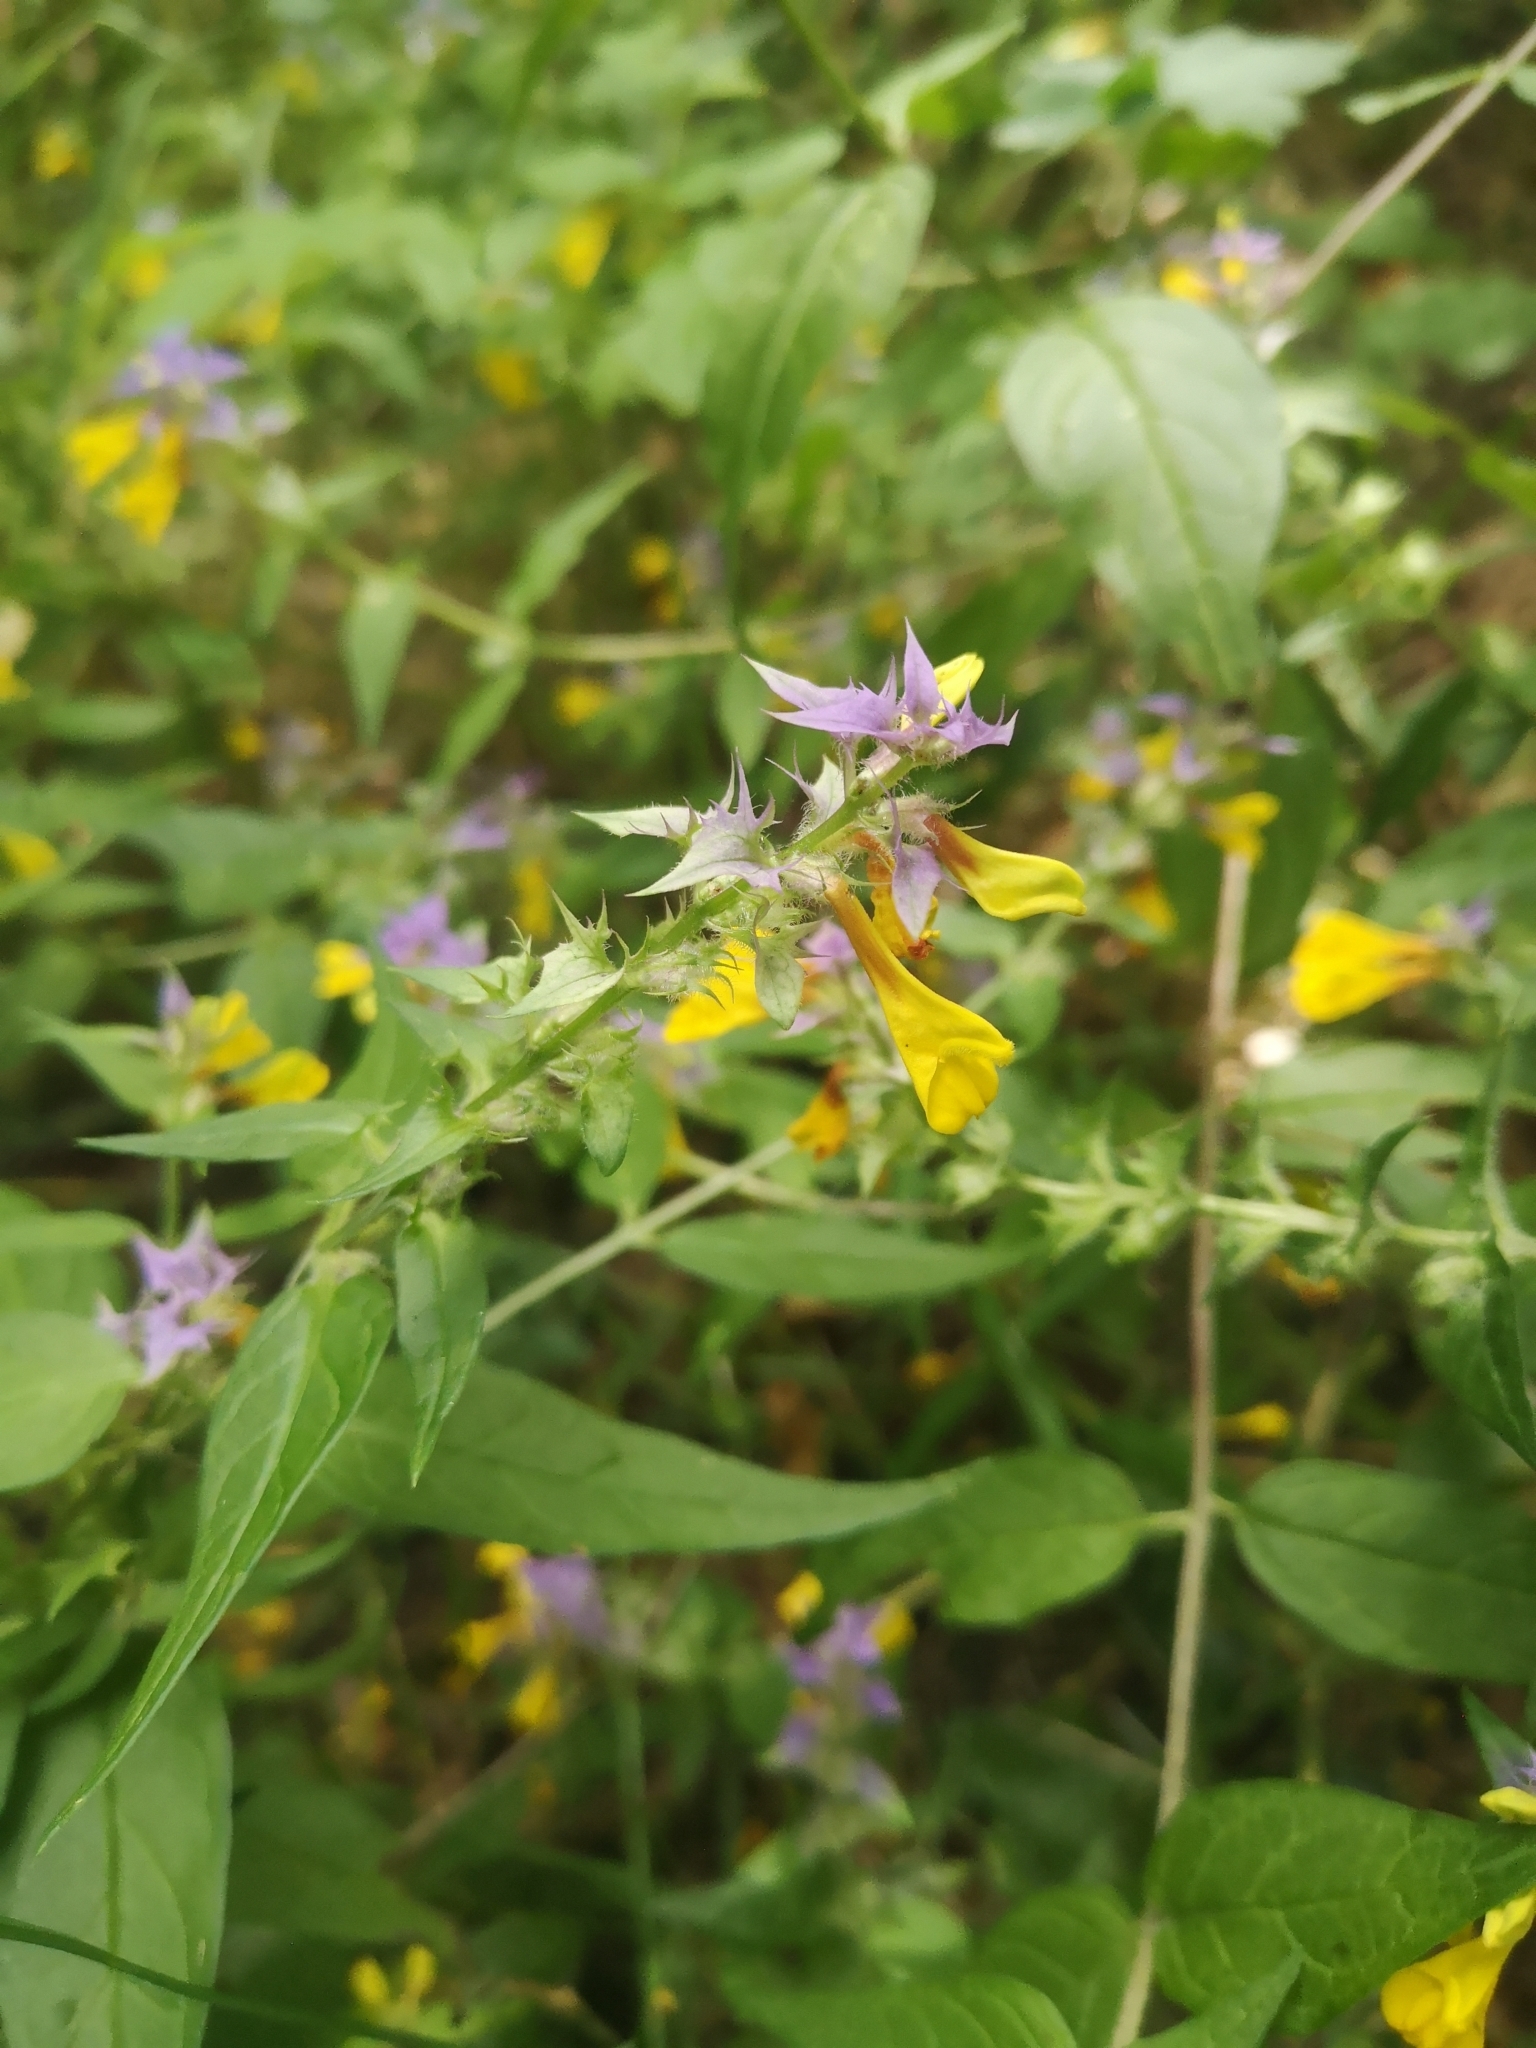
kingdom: Plantae
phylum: Tracheophyta
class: Magnoliopsida
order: Lamiales
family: Orobanchaceae
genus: Melampyrum
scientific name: Melampyrum nemorosum
